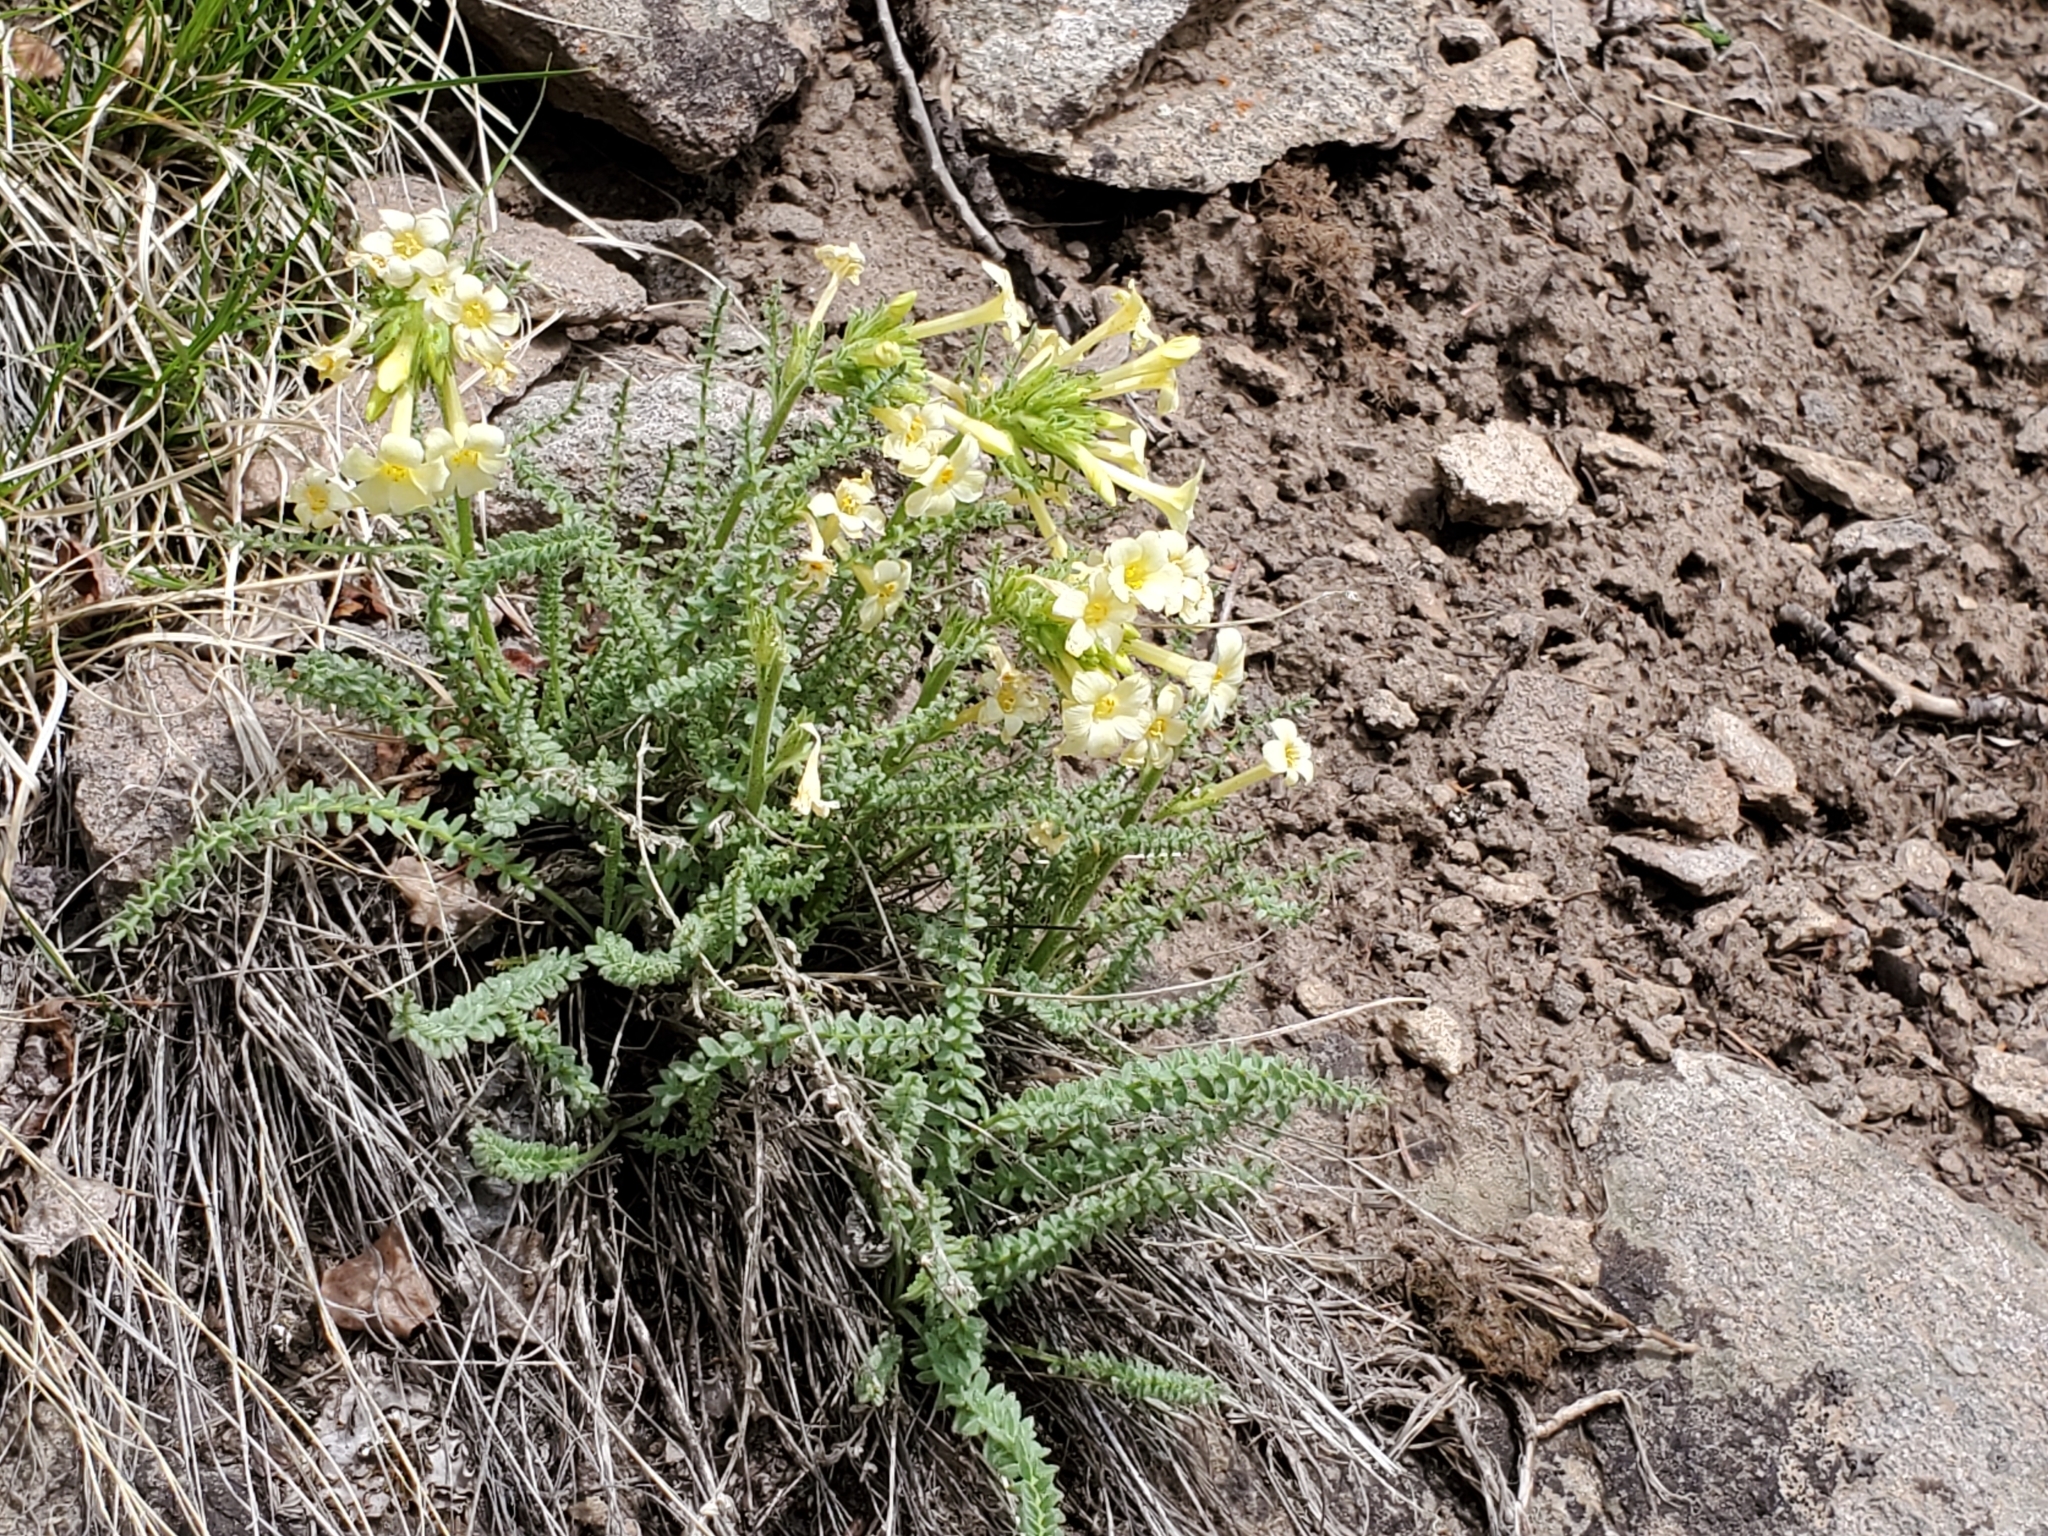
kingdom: Plantae
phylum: Tracheophyta
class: Magnoliopsida
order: Ericales
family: Polemoniaceae
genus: Polemonium
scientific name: Polemonium brandegeei
